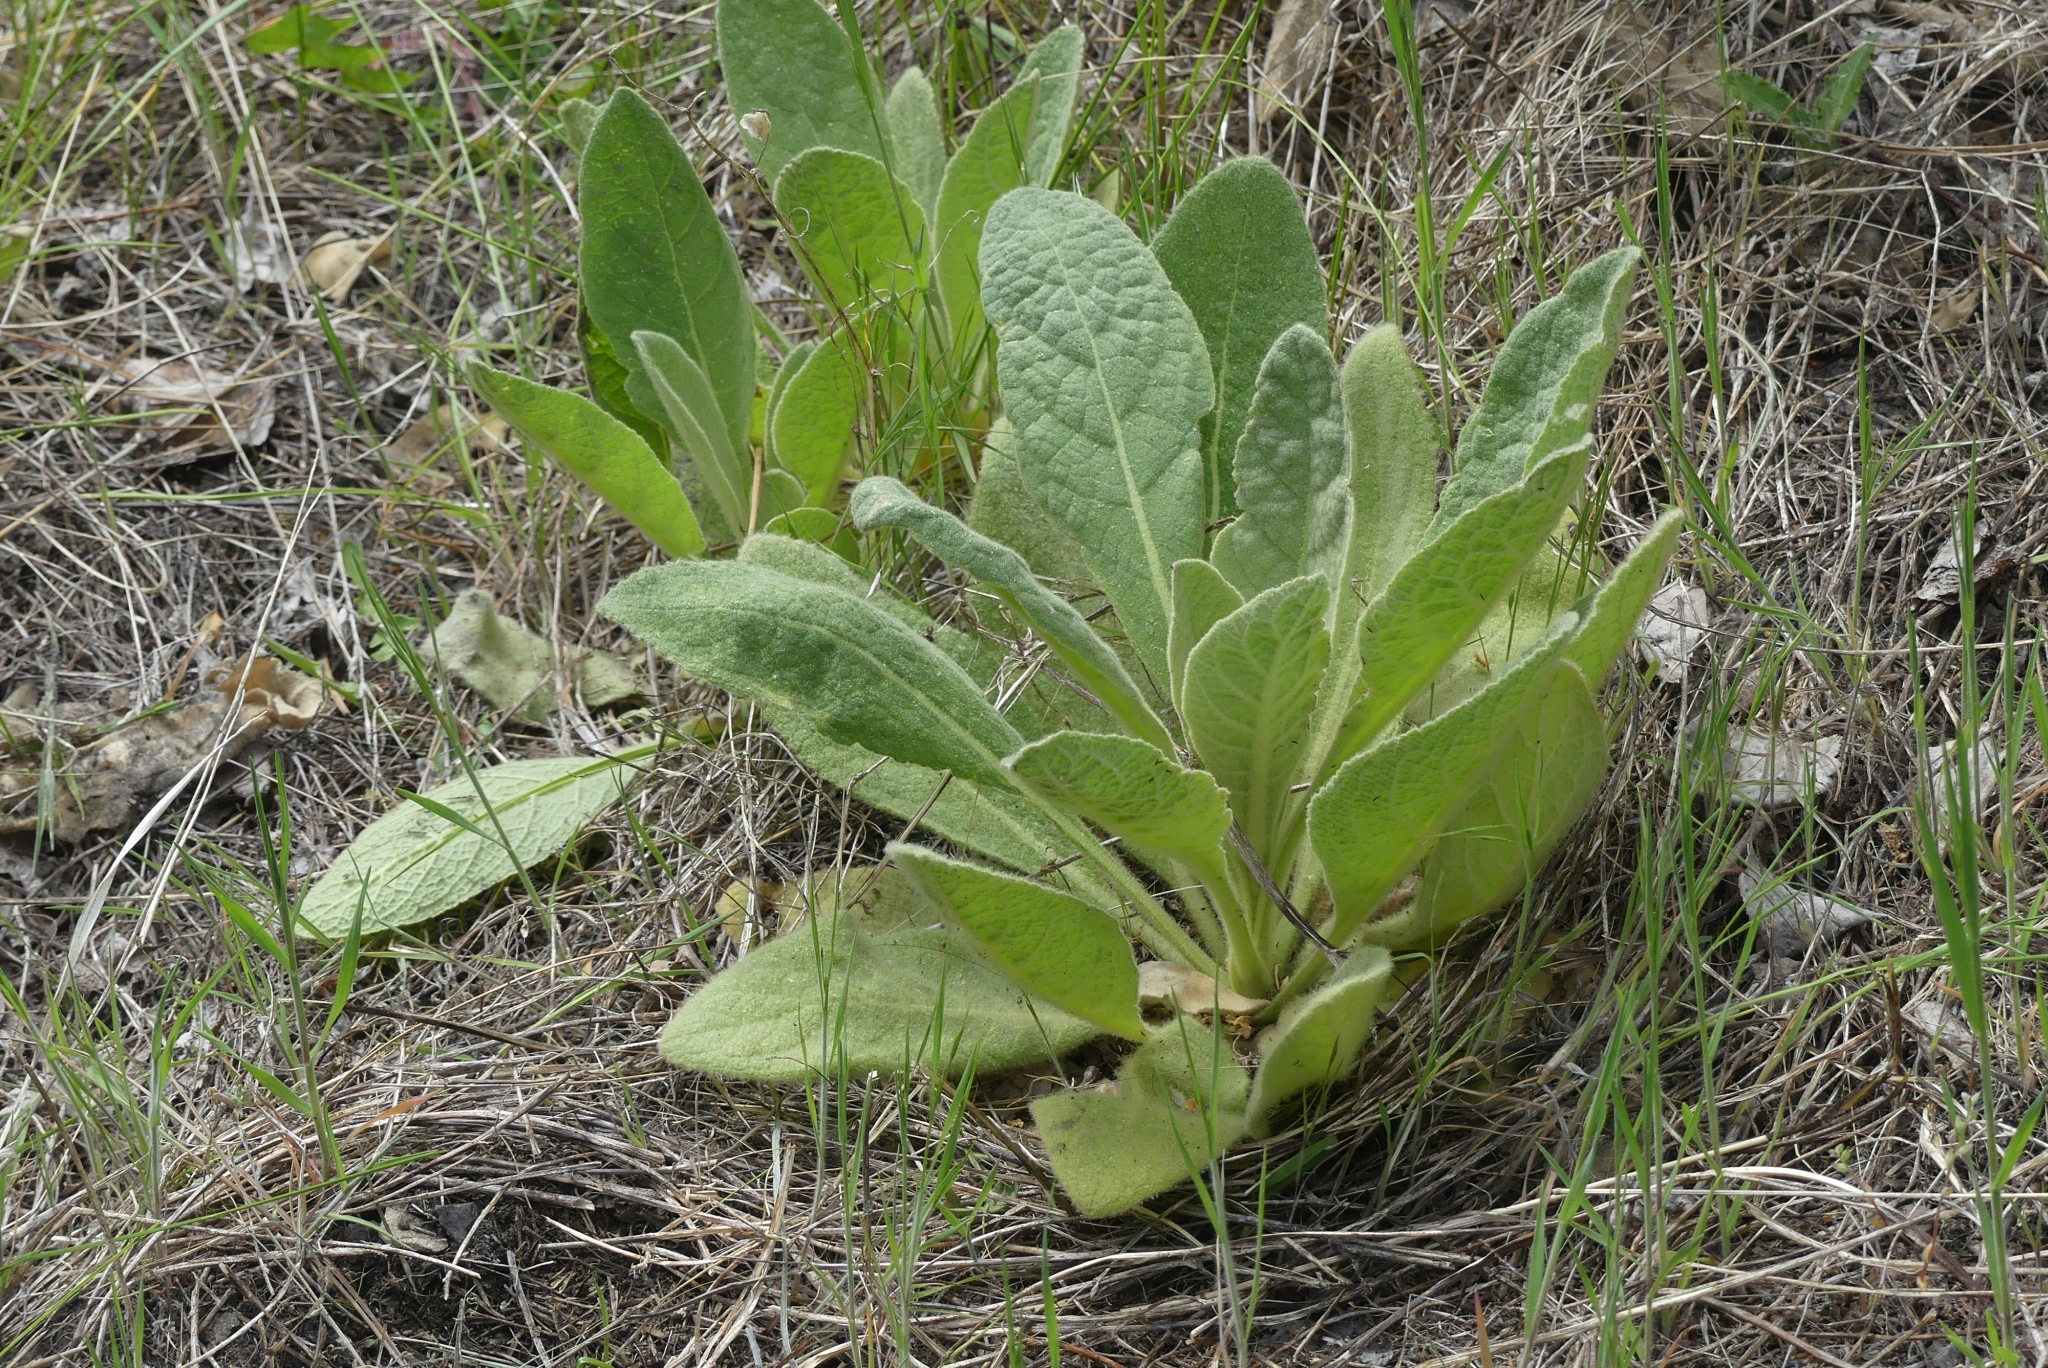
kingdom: Plantae
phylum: Tracheophyta
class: Magnoliopsida
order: Lamiales
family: Scrophulariaceae
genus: Verbascum
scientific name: Verbascum thapsus
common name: Common mullein
